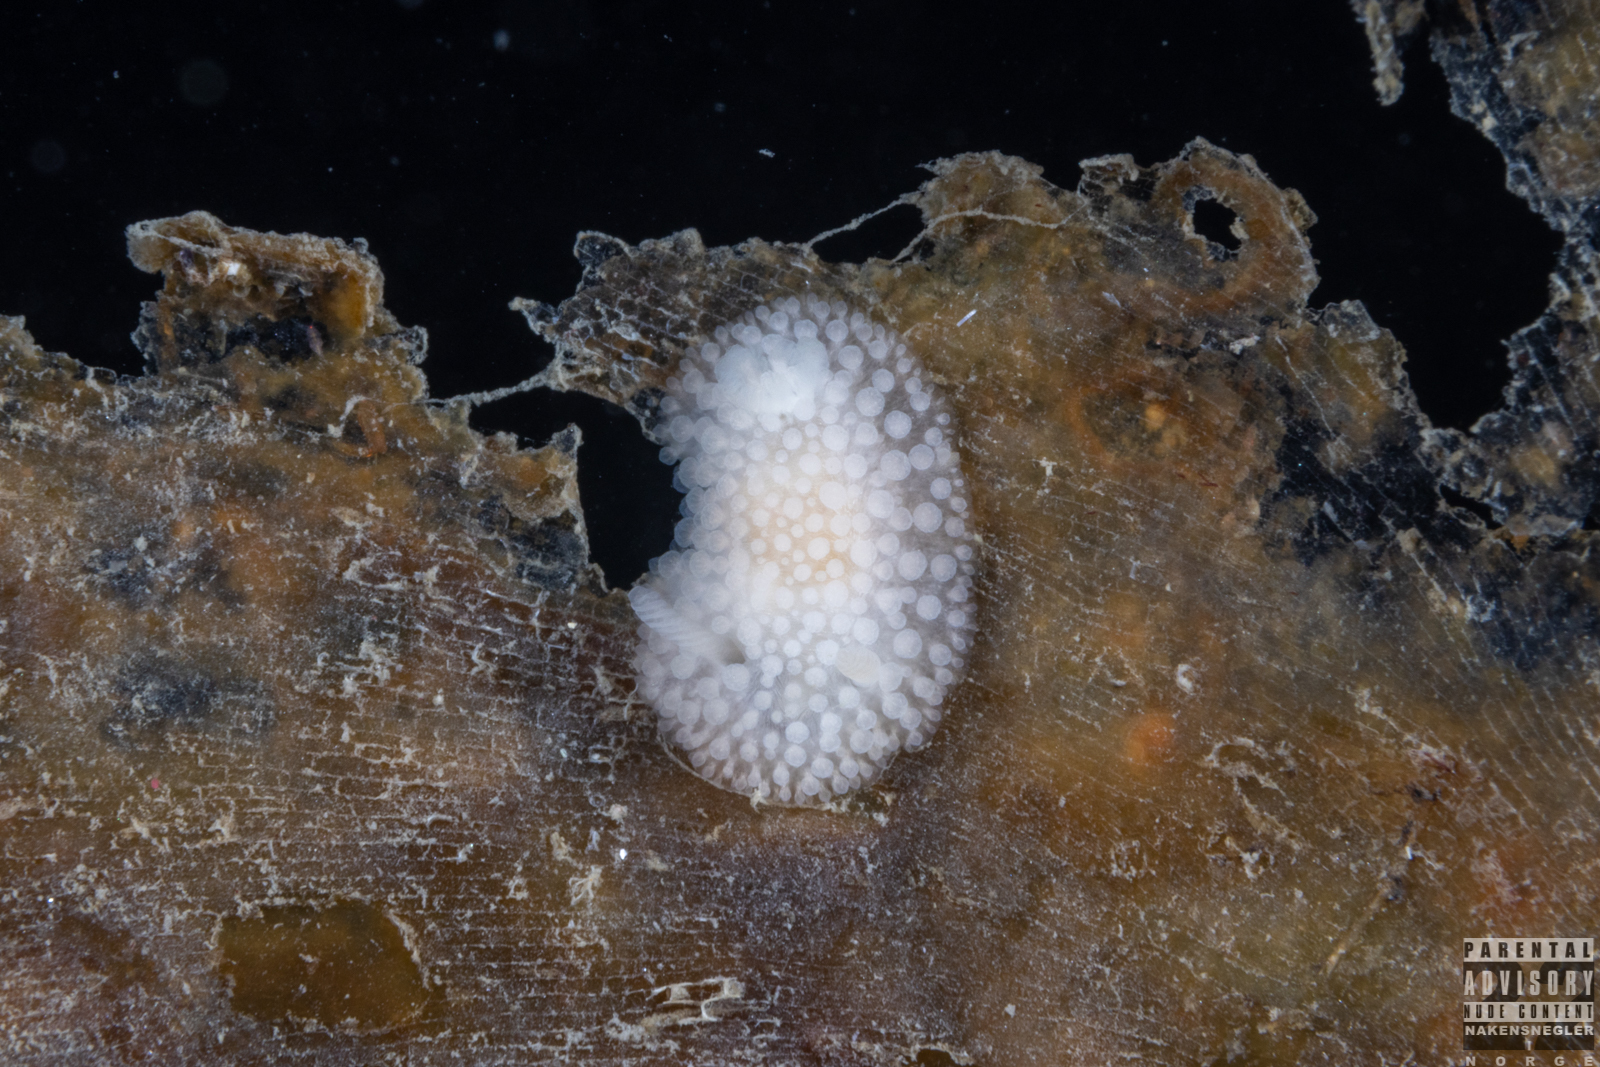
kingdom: Animalia
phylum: Mollusca
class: Gastropoda
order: Nudibranchia
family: Onchidorididae
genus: Onchidoris
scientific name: Onchidoris muricata
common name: Rough doris
